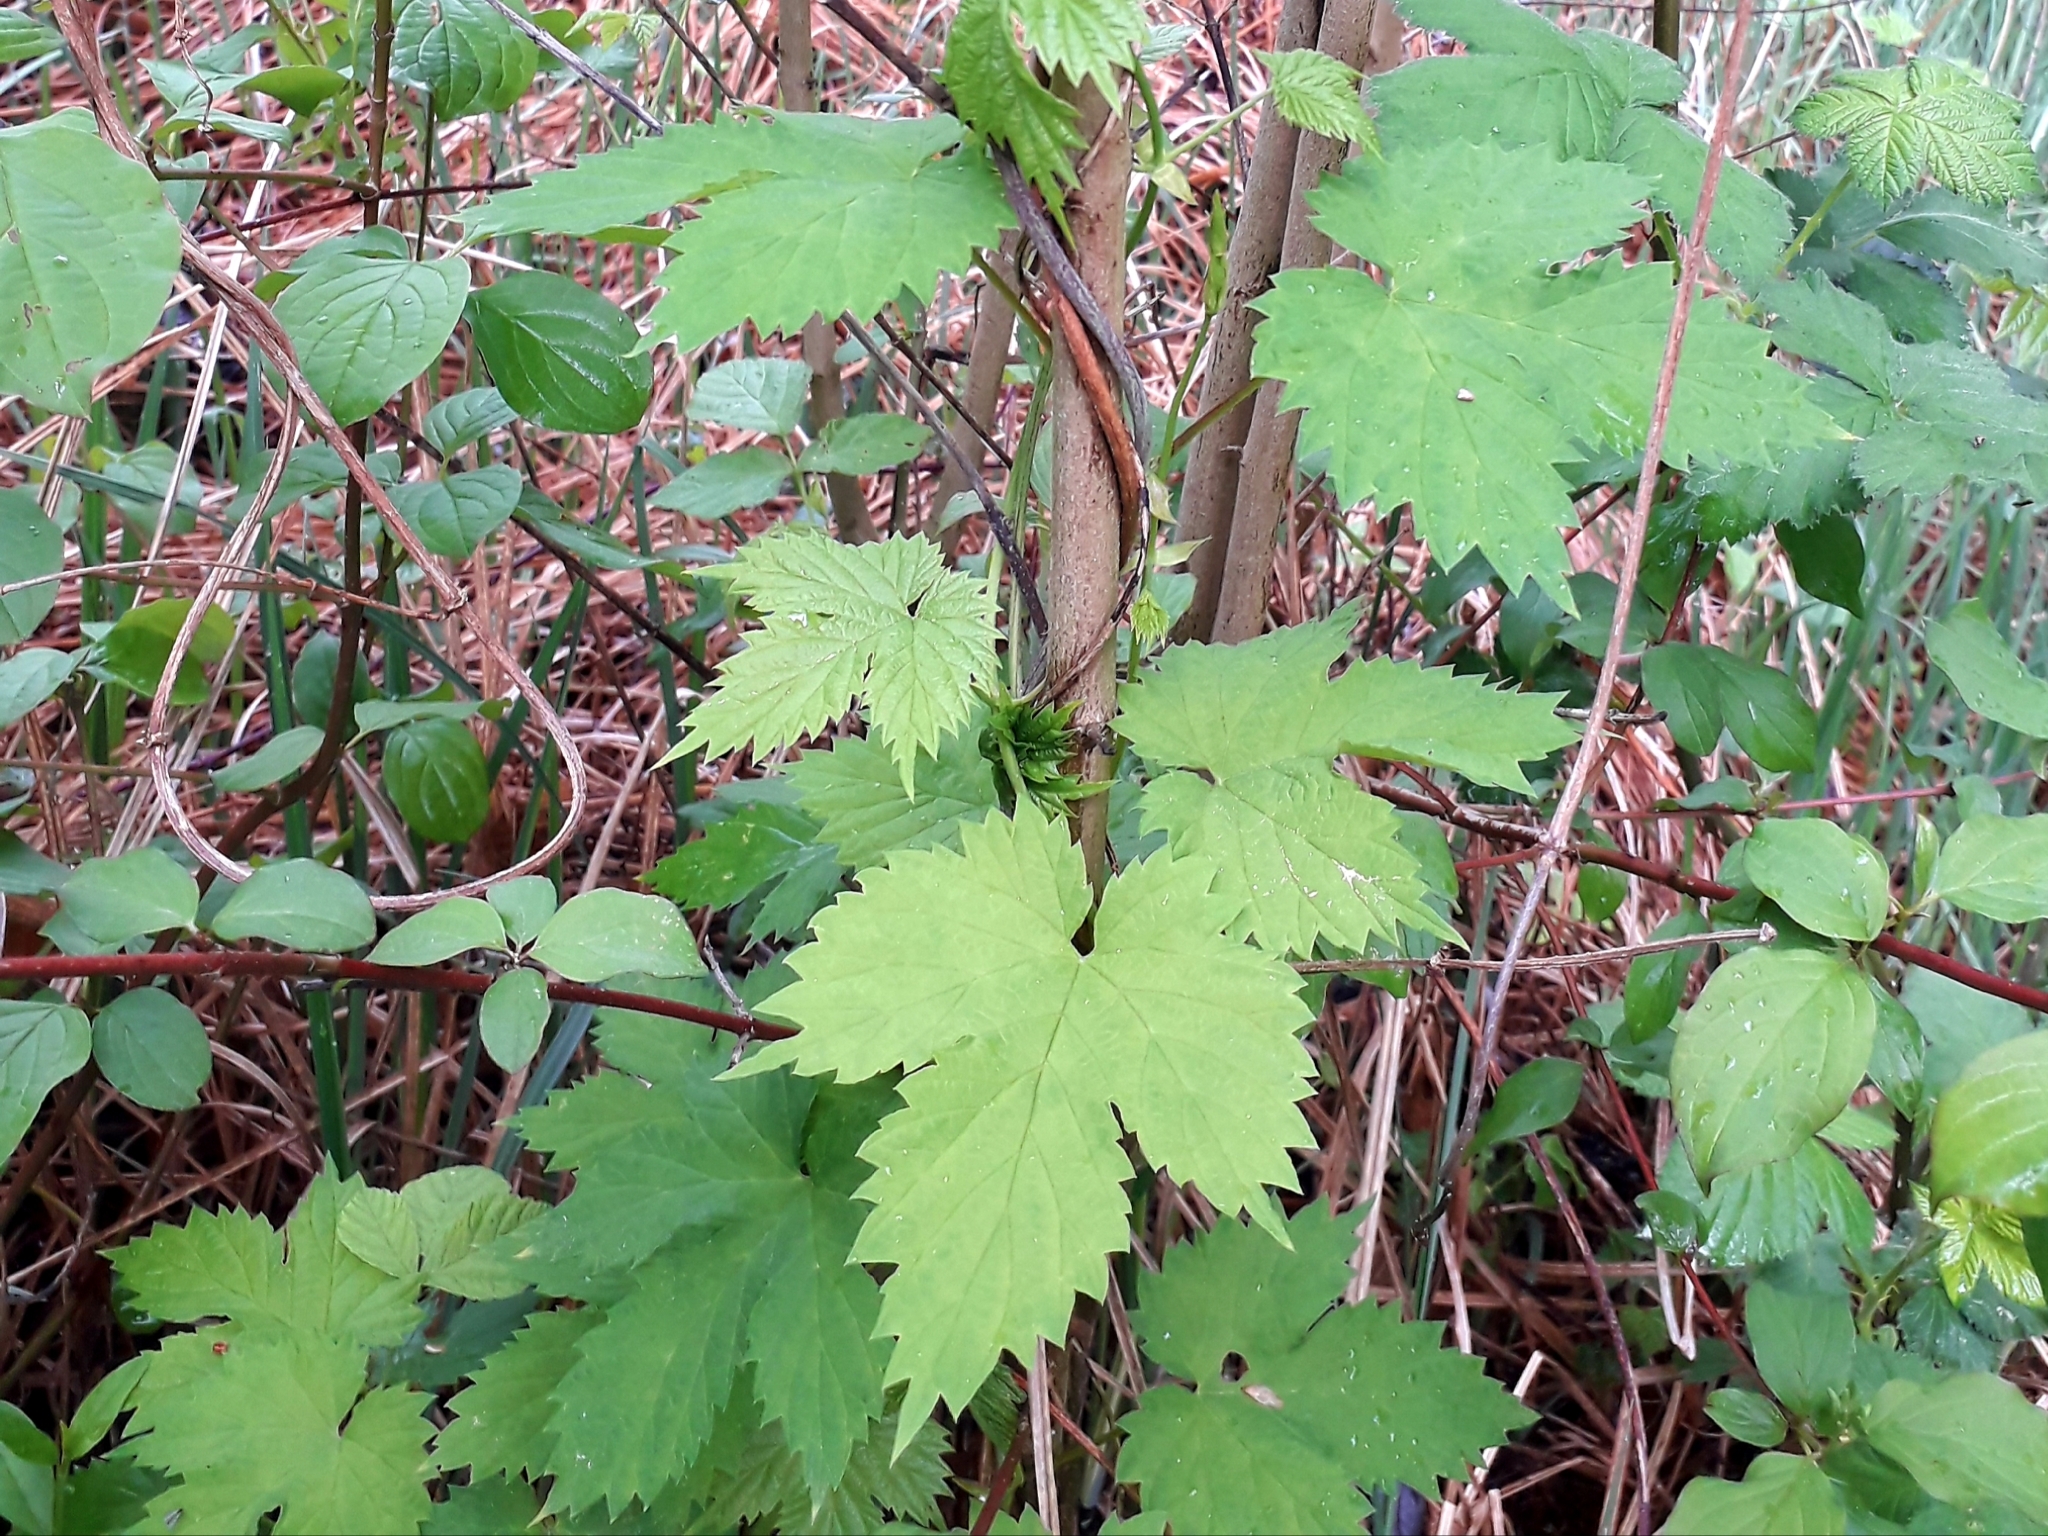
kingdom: Plantae
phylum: Tracheophyta
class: Magnoliopsida
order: Rosales
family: Cannabaceae
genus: Humulus
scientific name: Humulus lupulus
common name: Hop
